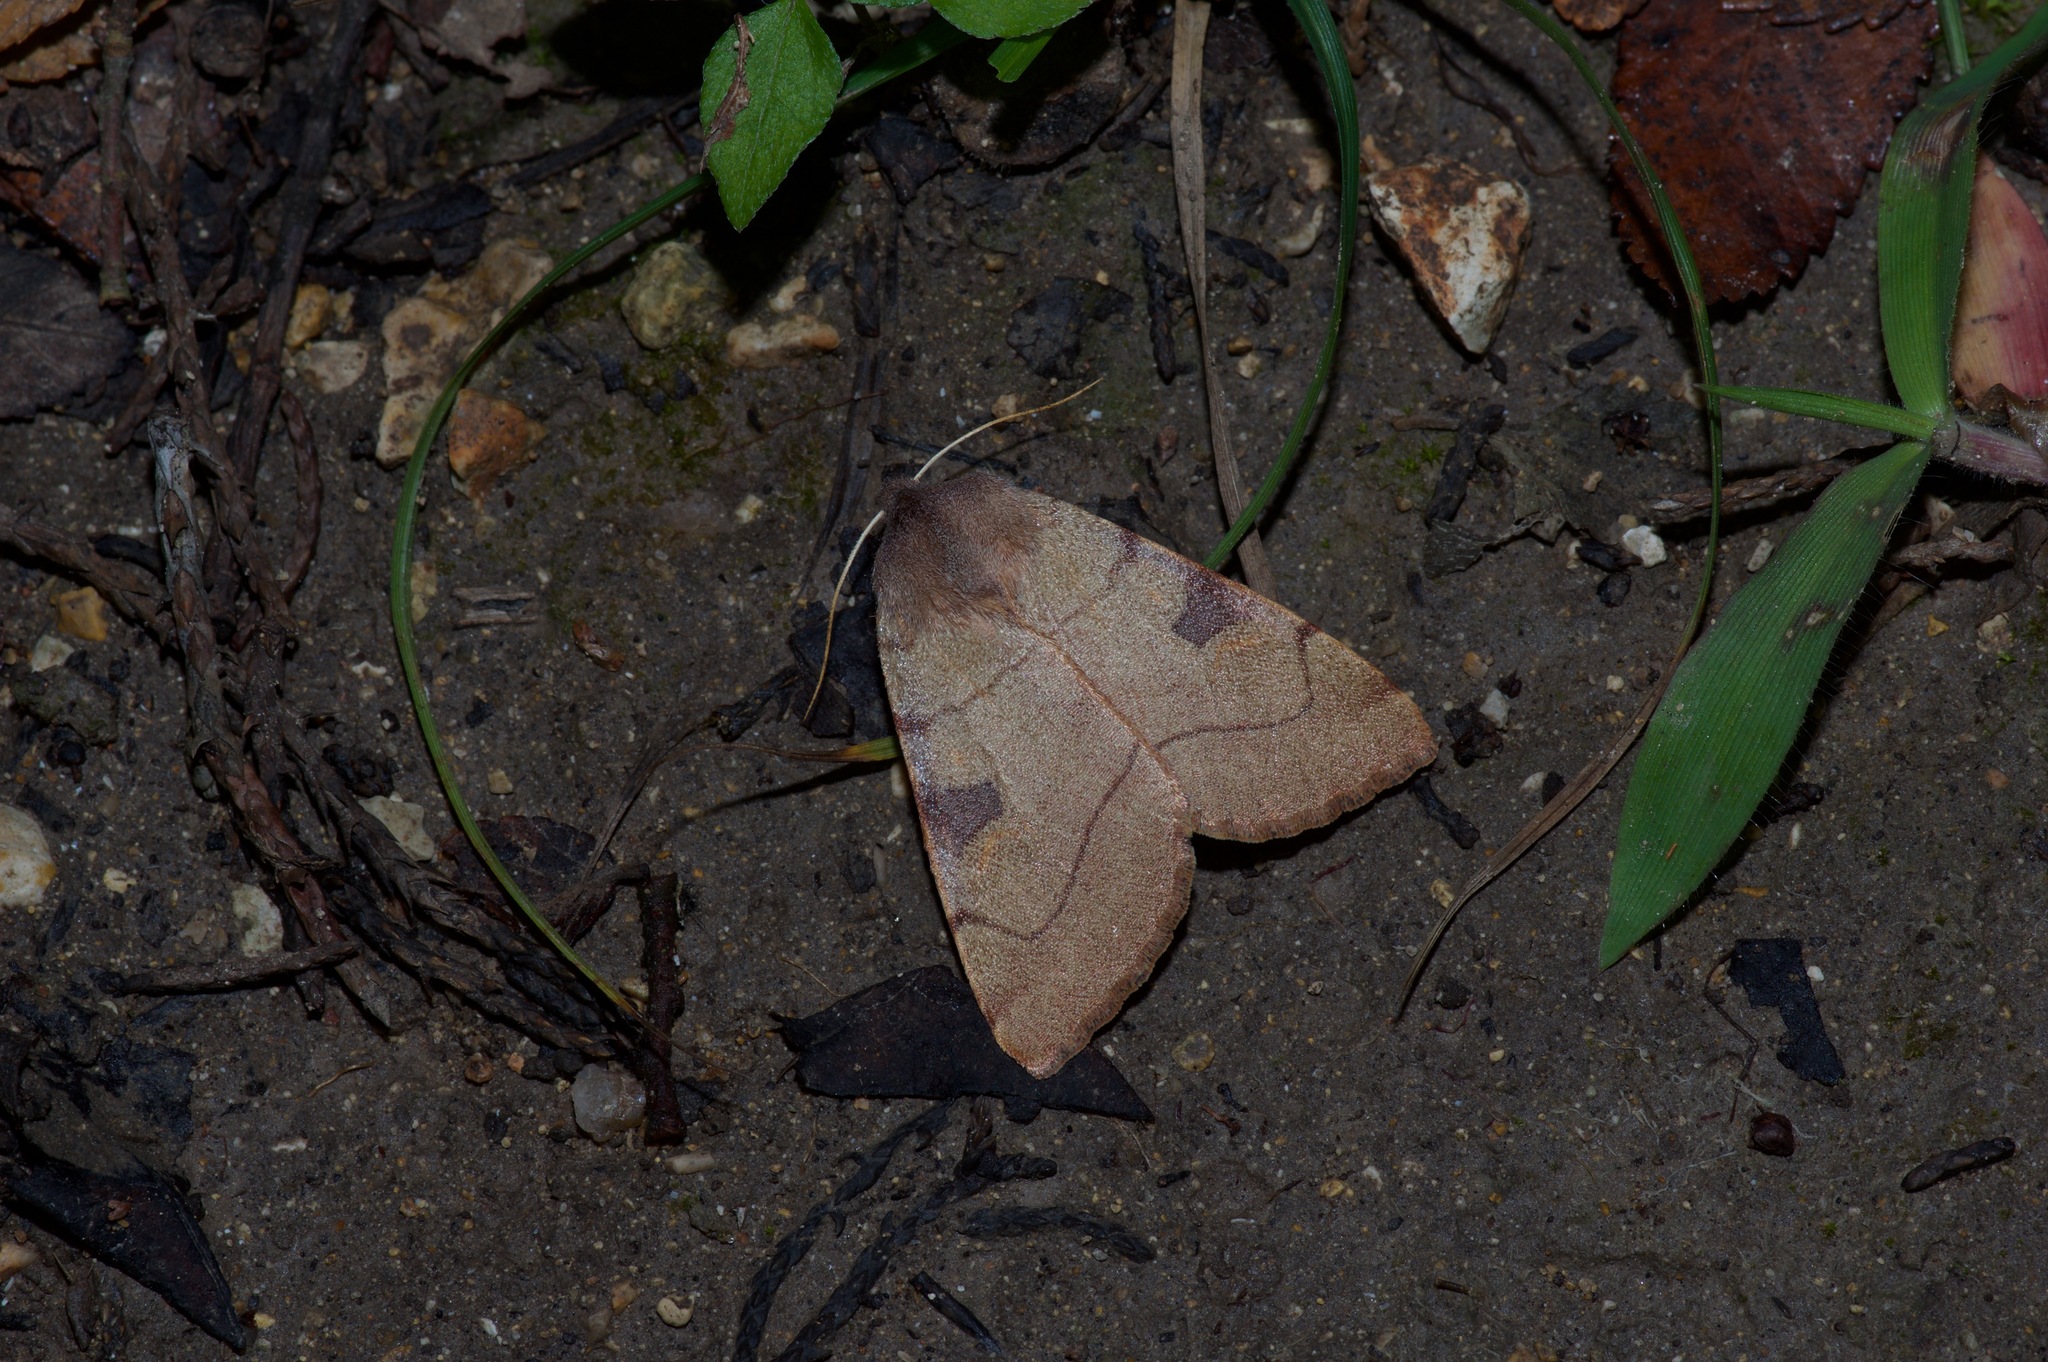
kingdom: Animalia
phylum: Arthropoda
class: Insecta
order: Lepidoptera
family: Noctuidae
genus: Choephora
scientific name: Choephora fungorum
